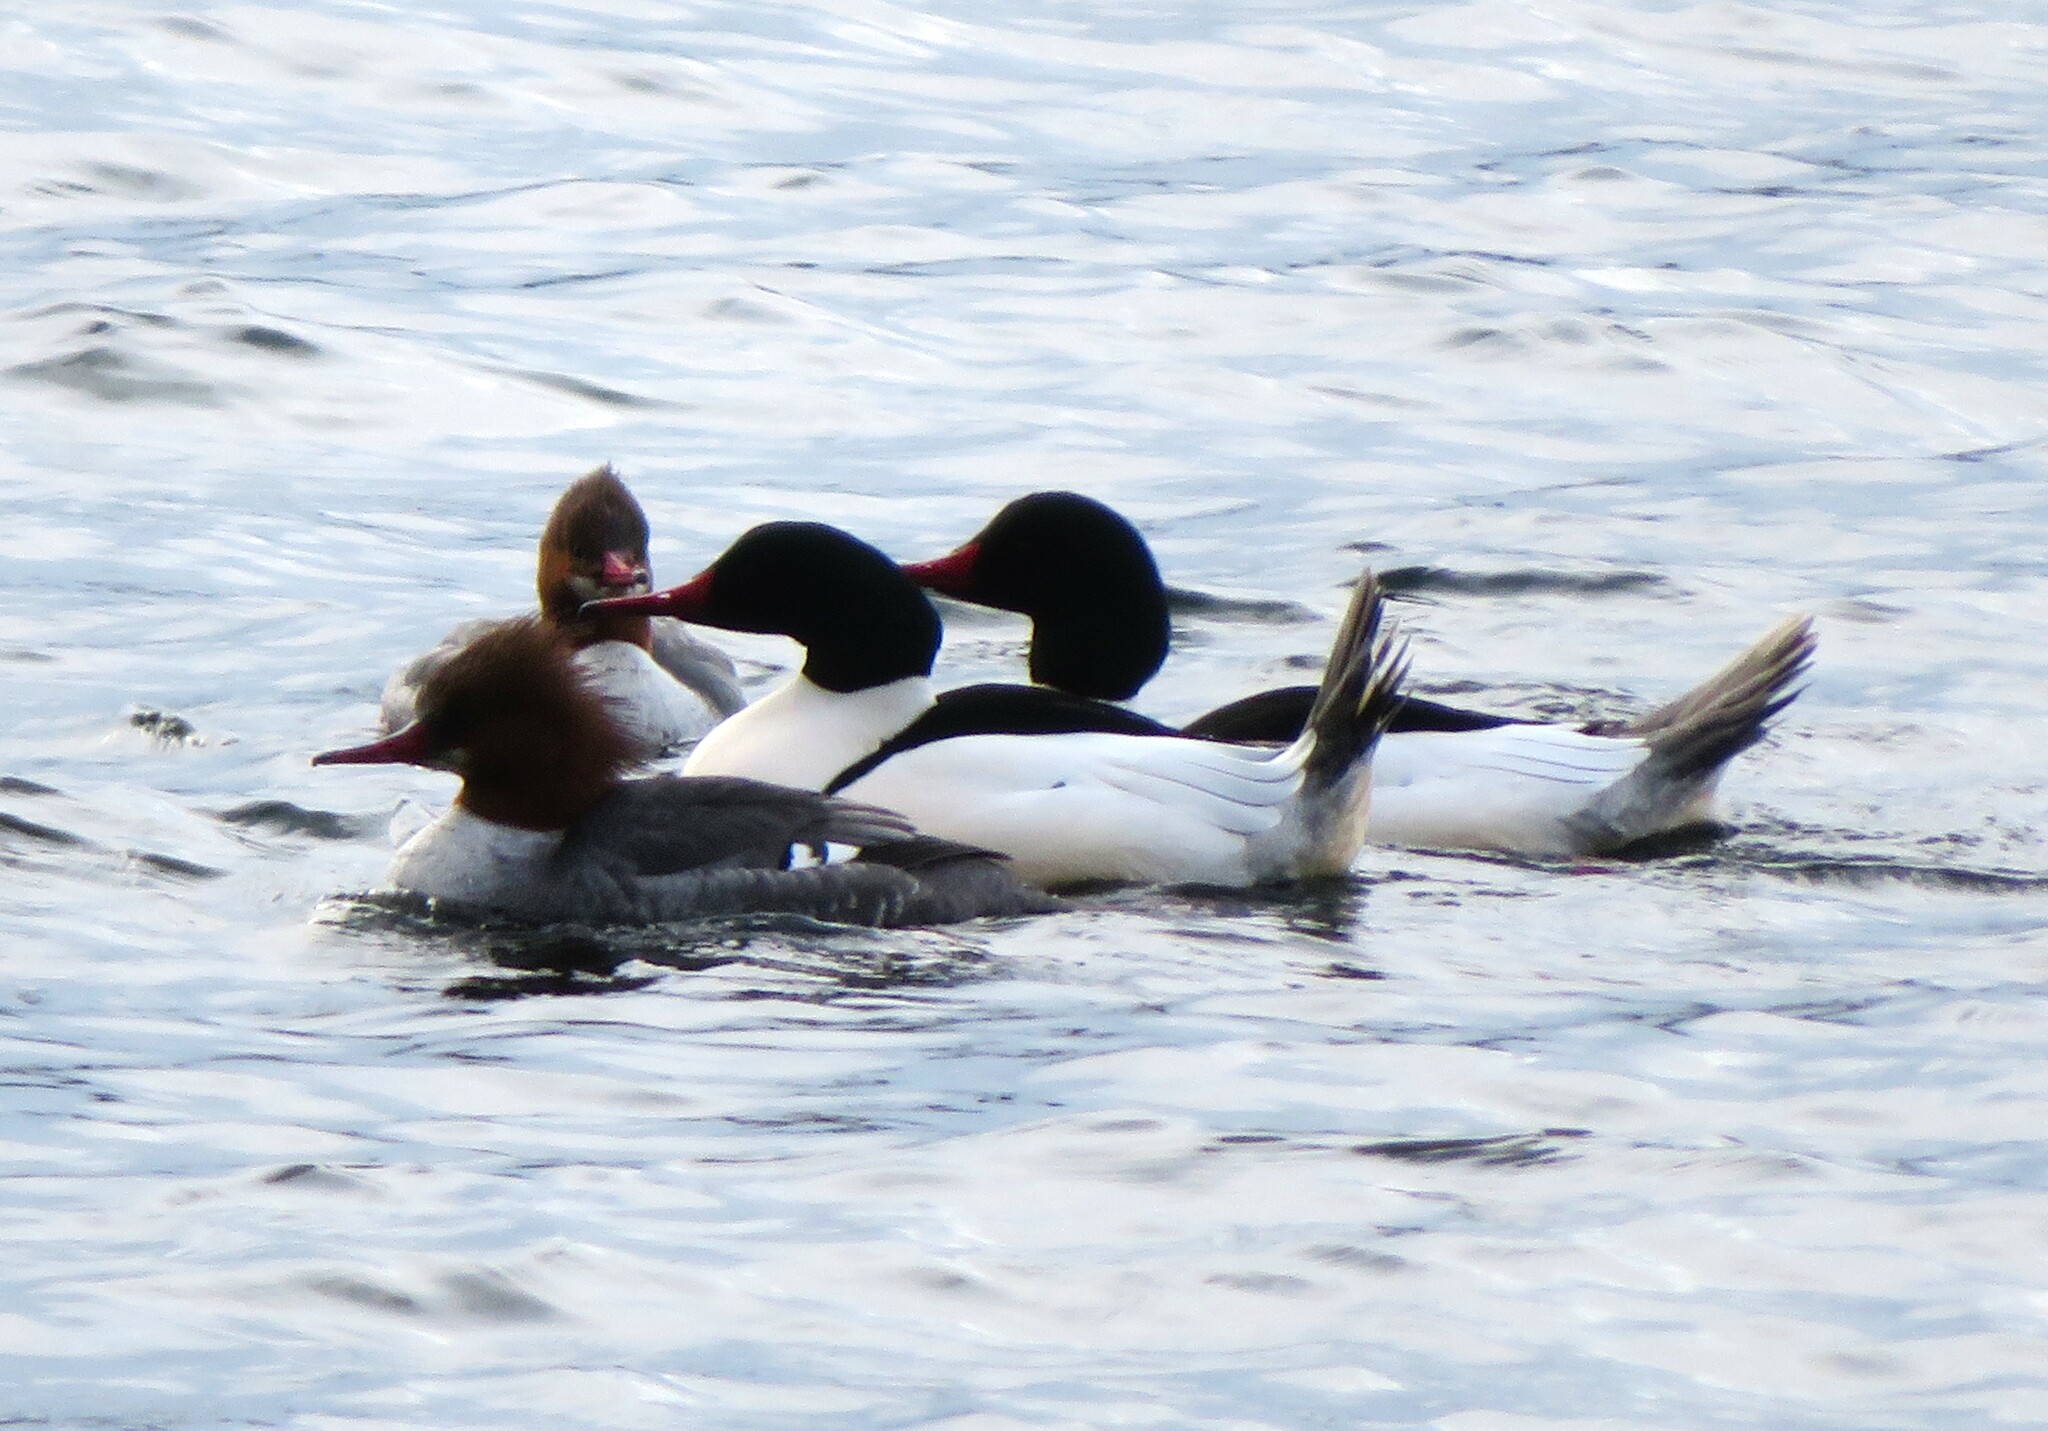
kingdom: Animalia
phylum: Chordata
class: Aves
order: Anseriformes
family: Anatidae
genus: Mergus
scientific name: Mergus merganser
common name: Common merganser
